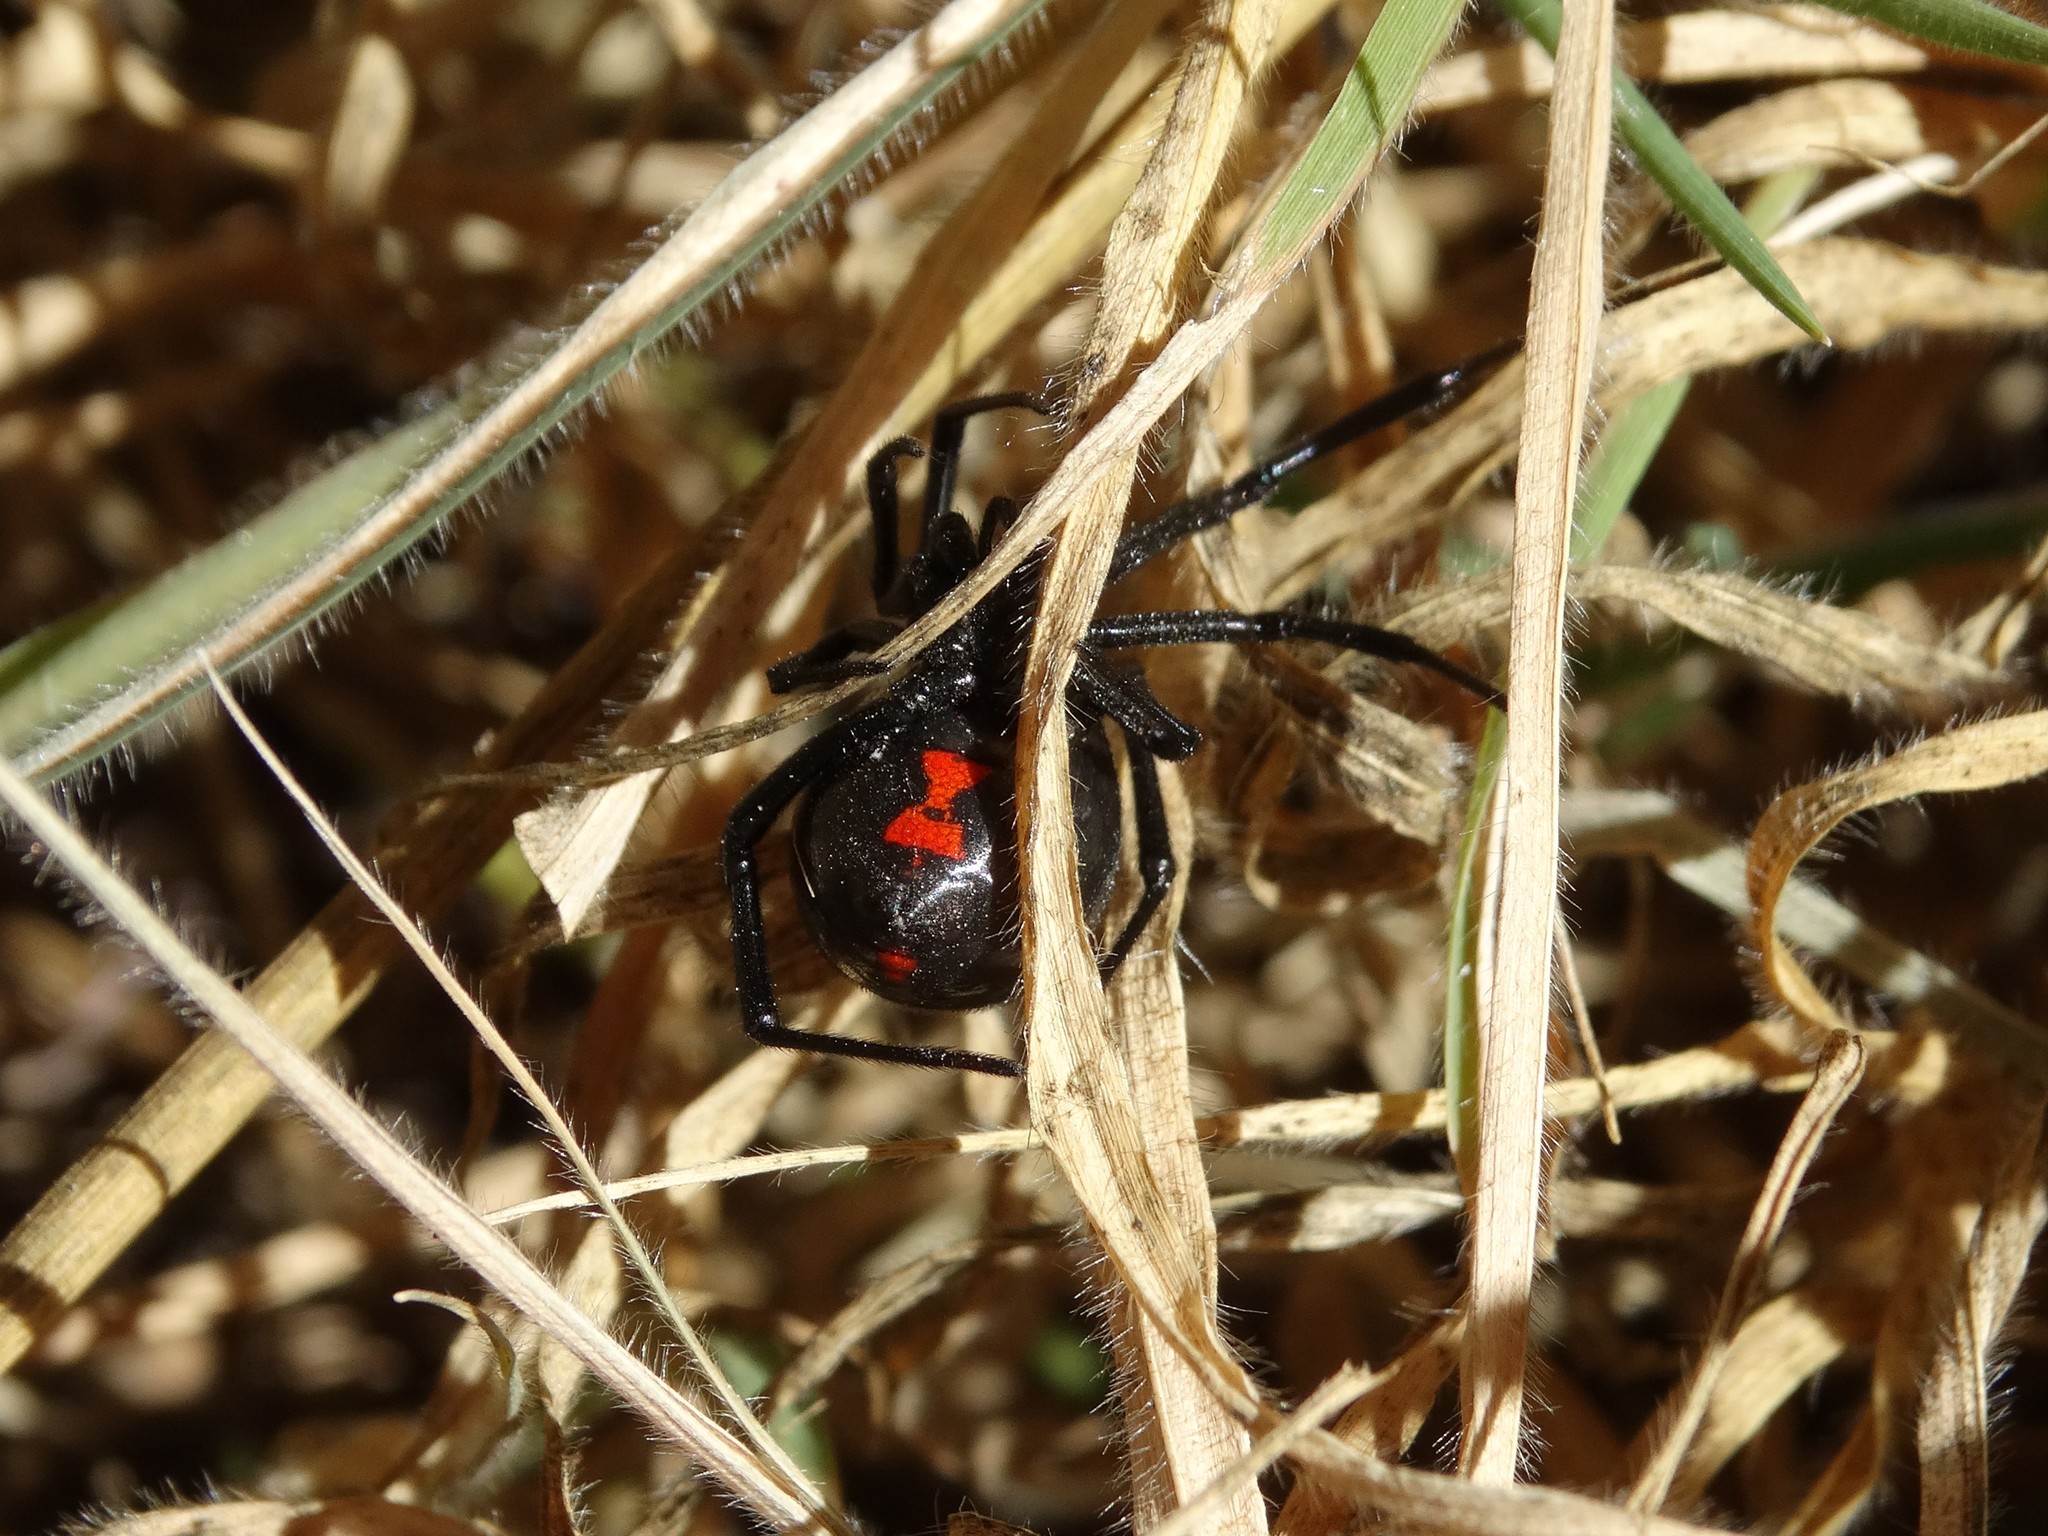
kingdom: Animalia
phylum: Arthropoda
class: Arachnida
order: Araneae
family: Theridiidae
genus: Latrodectus
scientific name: Latrodectus mactans
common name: Cobweb spiders
